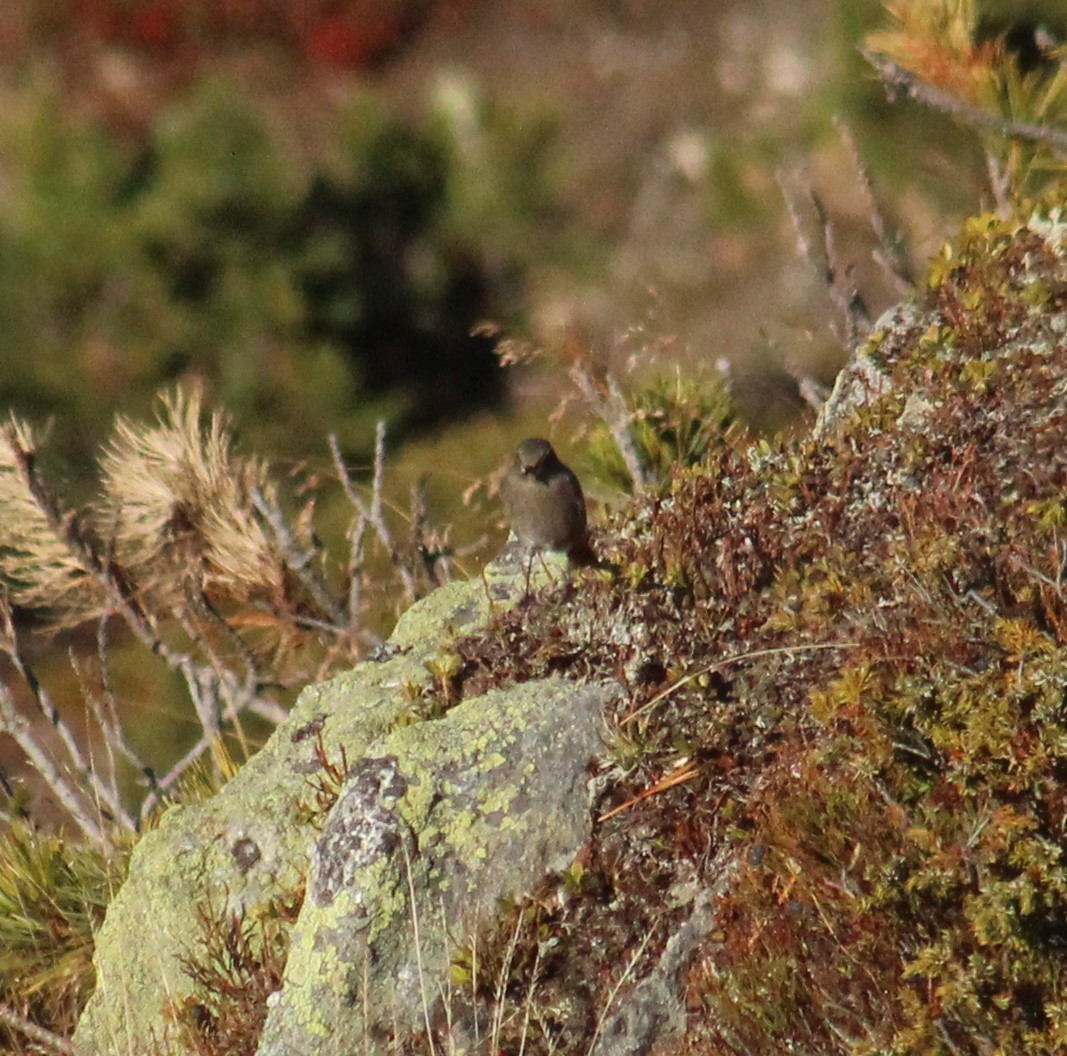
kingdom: Animalia
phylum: Chordata
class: Aves
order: Passeriformes
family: Muscicapidae
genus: Phoenicurus
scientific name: Phoenicurus ochruros
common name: Black redstart
